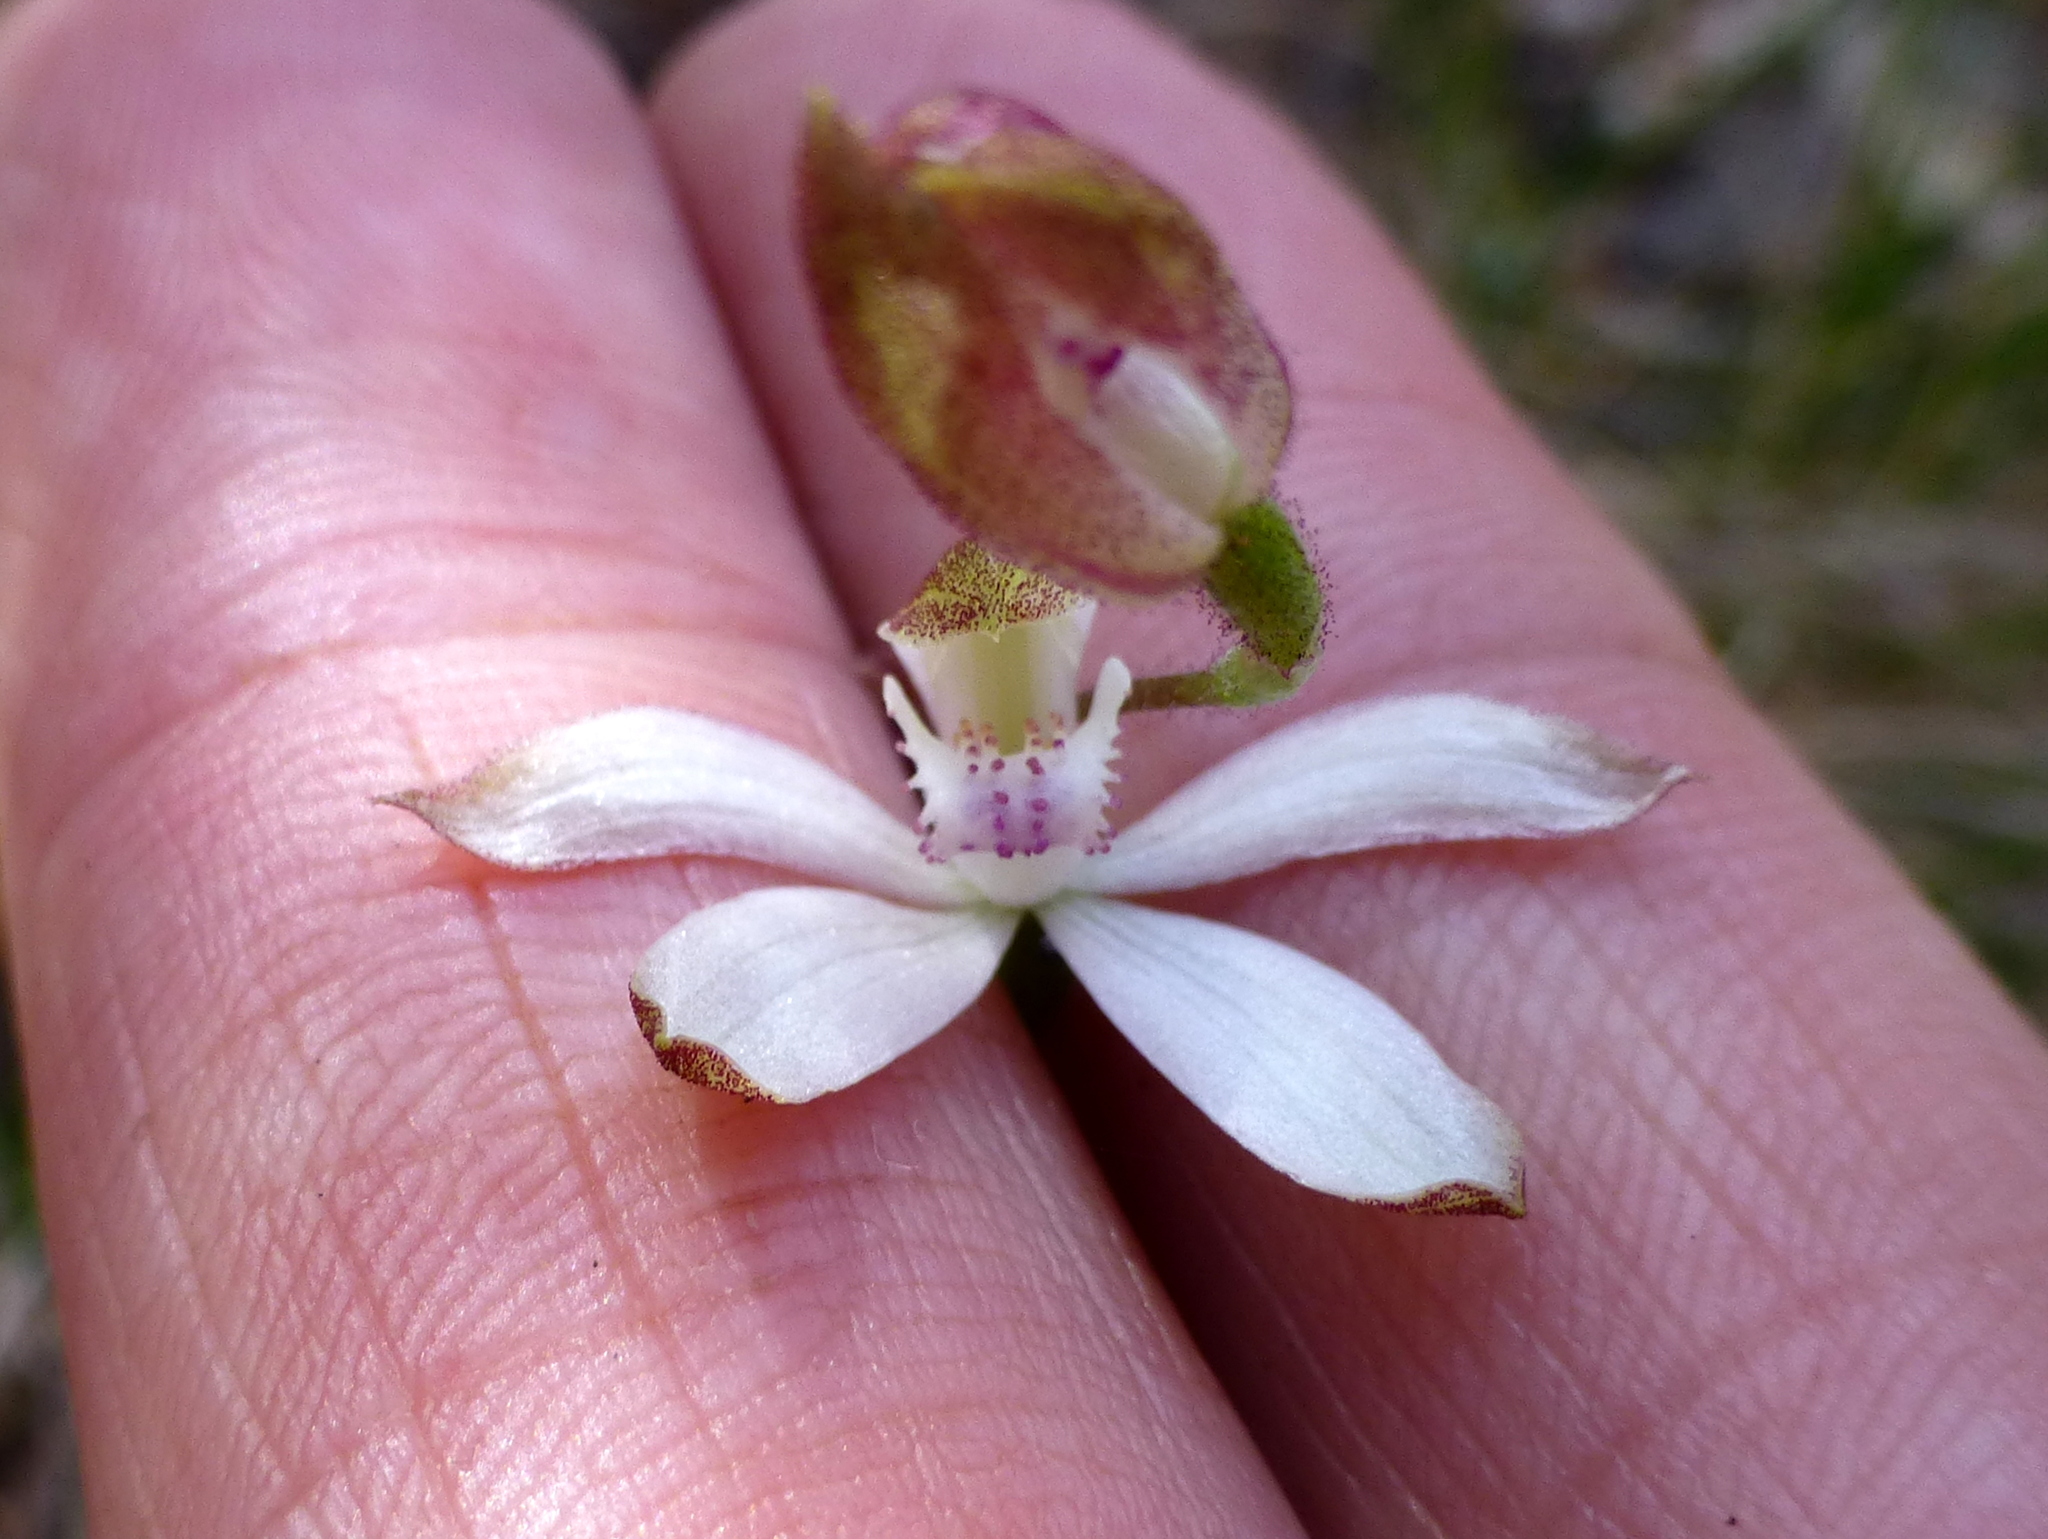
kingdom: Plantae
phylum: Tracheophyta
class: Liliopsida
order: Asparagales
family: Orchidaceae
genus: Caladenia
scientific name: Caladenia moschata
